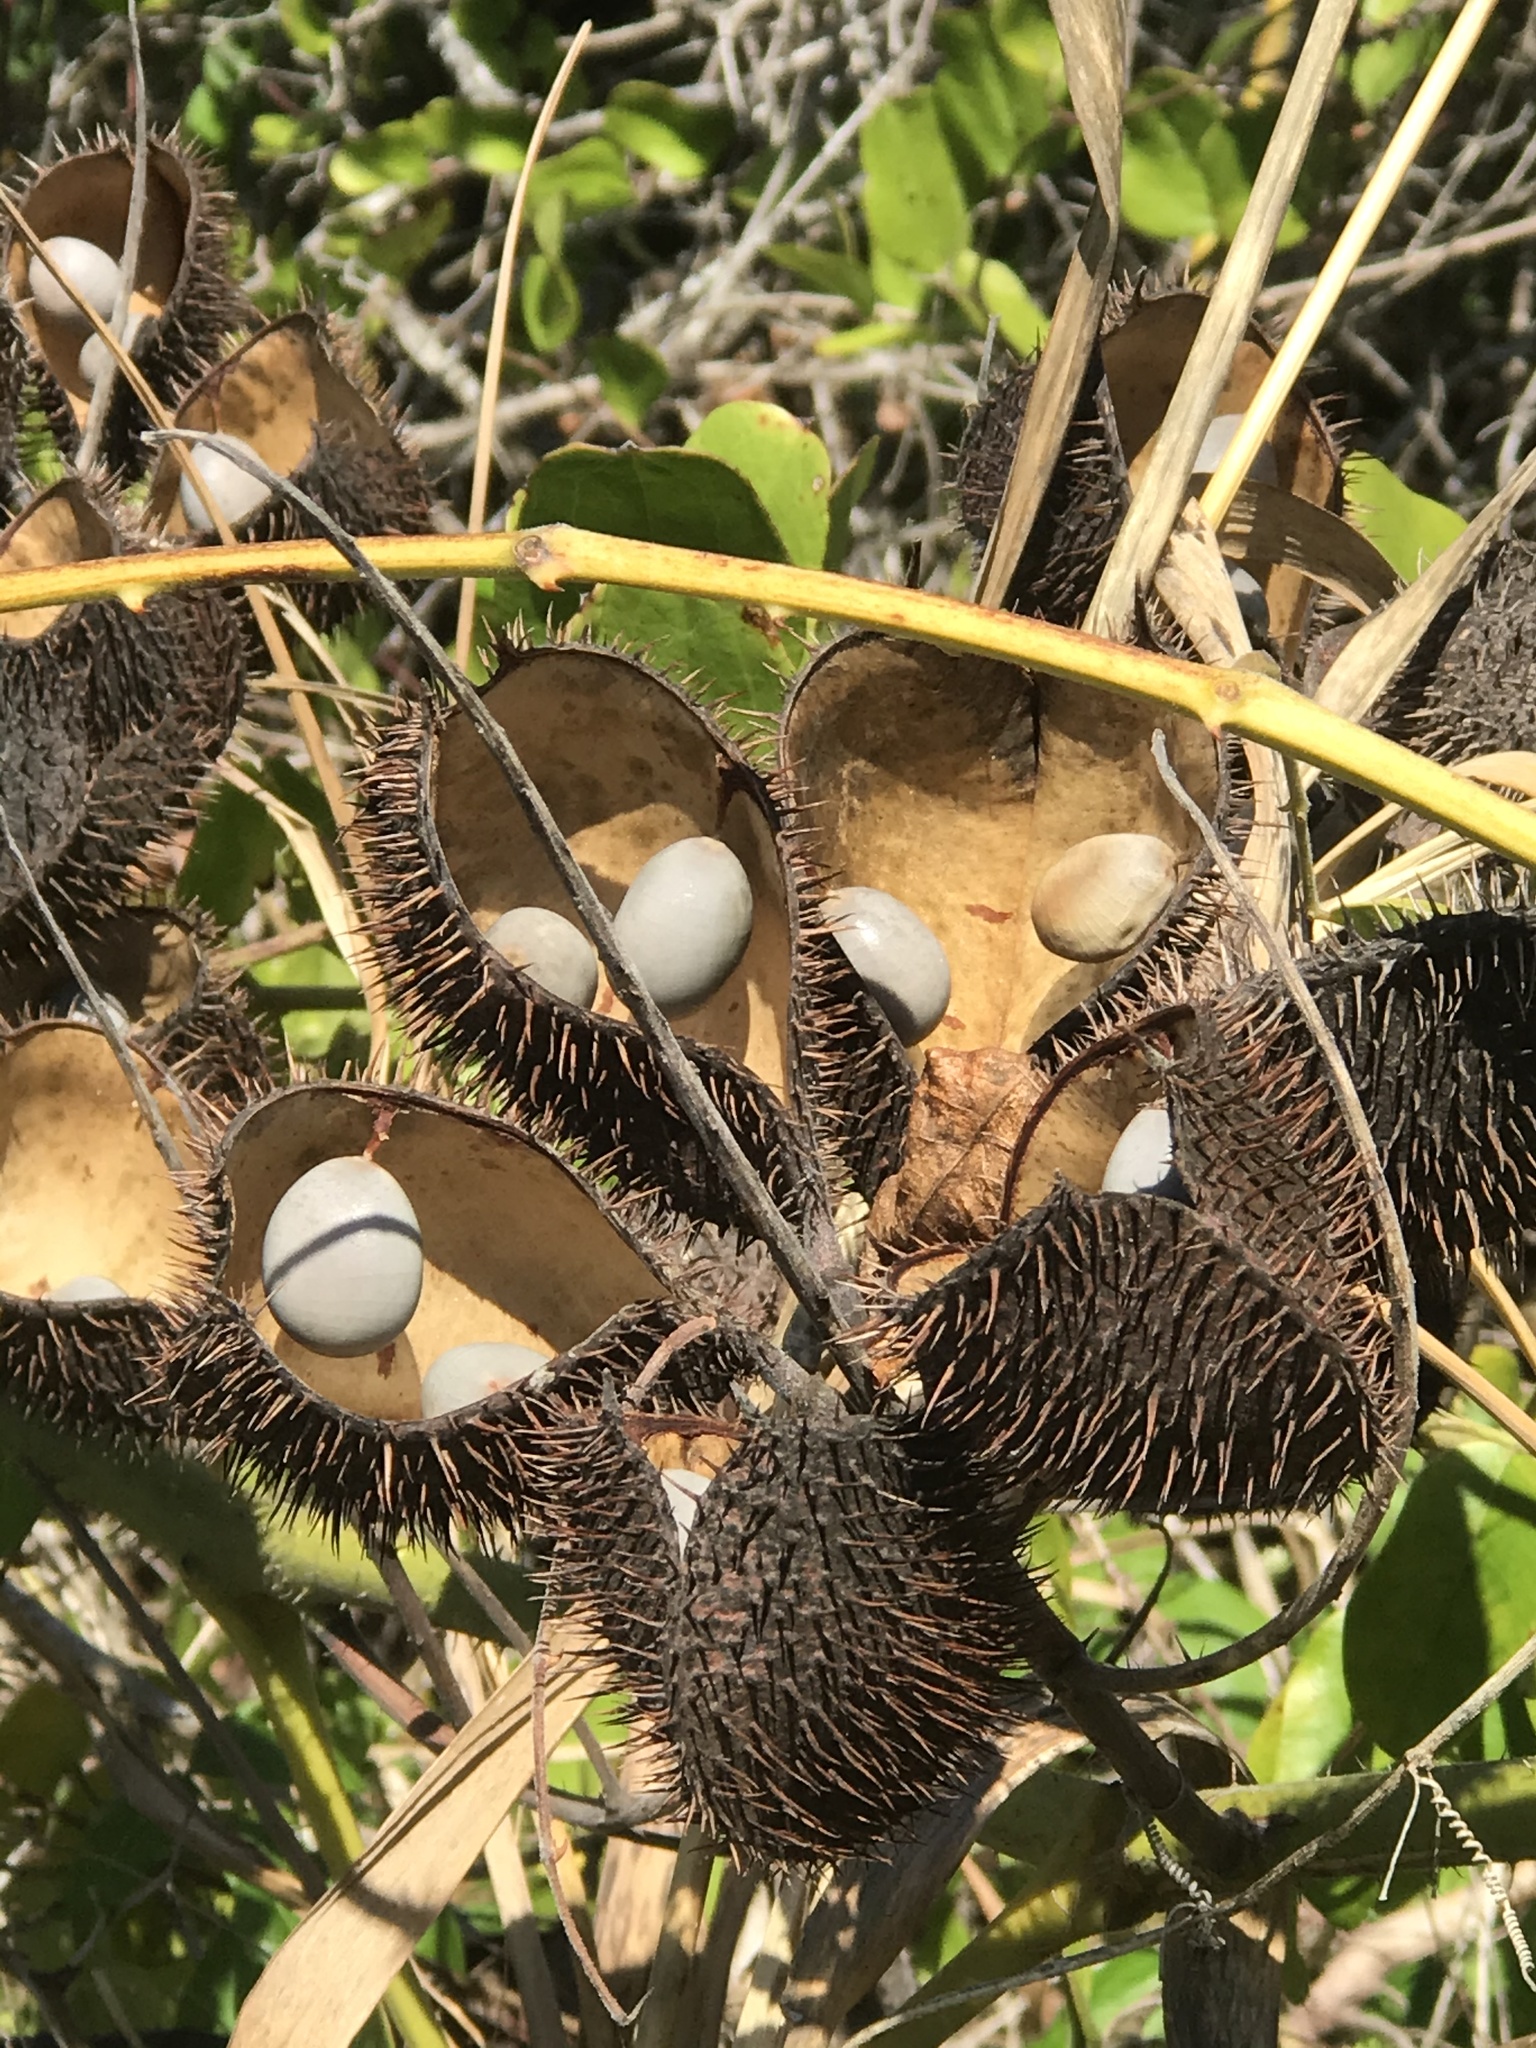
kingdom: Plantae
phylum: Tracheophyta
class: Magnoliopsida
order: Fabales
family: Fabaceae
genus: Guilandina
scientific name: Guilandina bonduc
